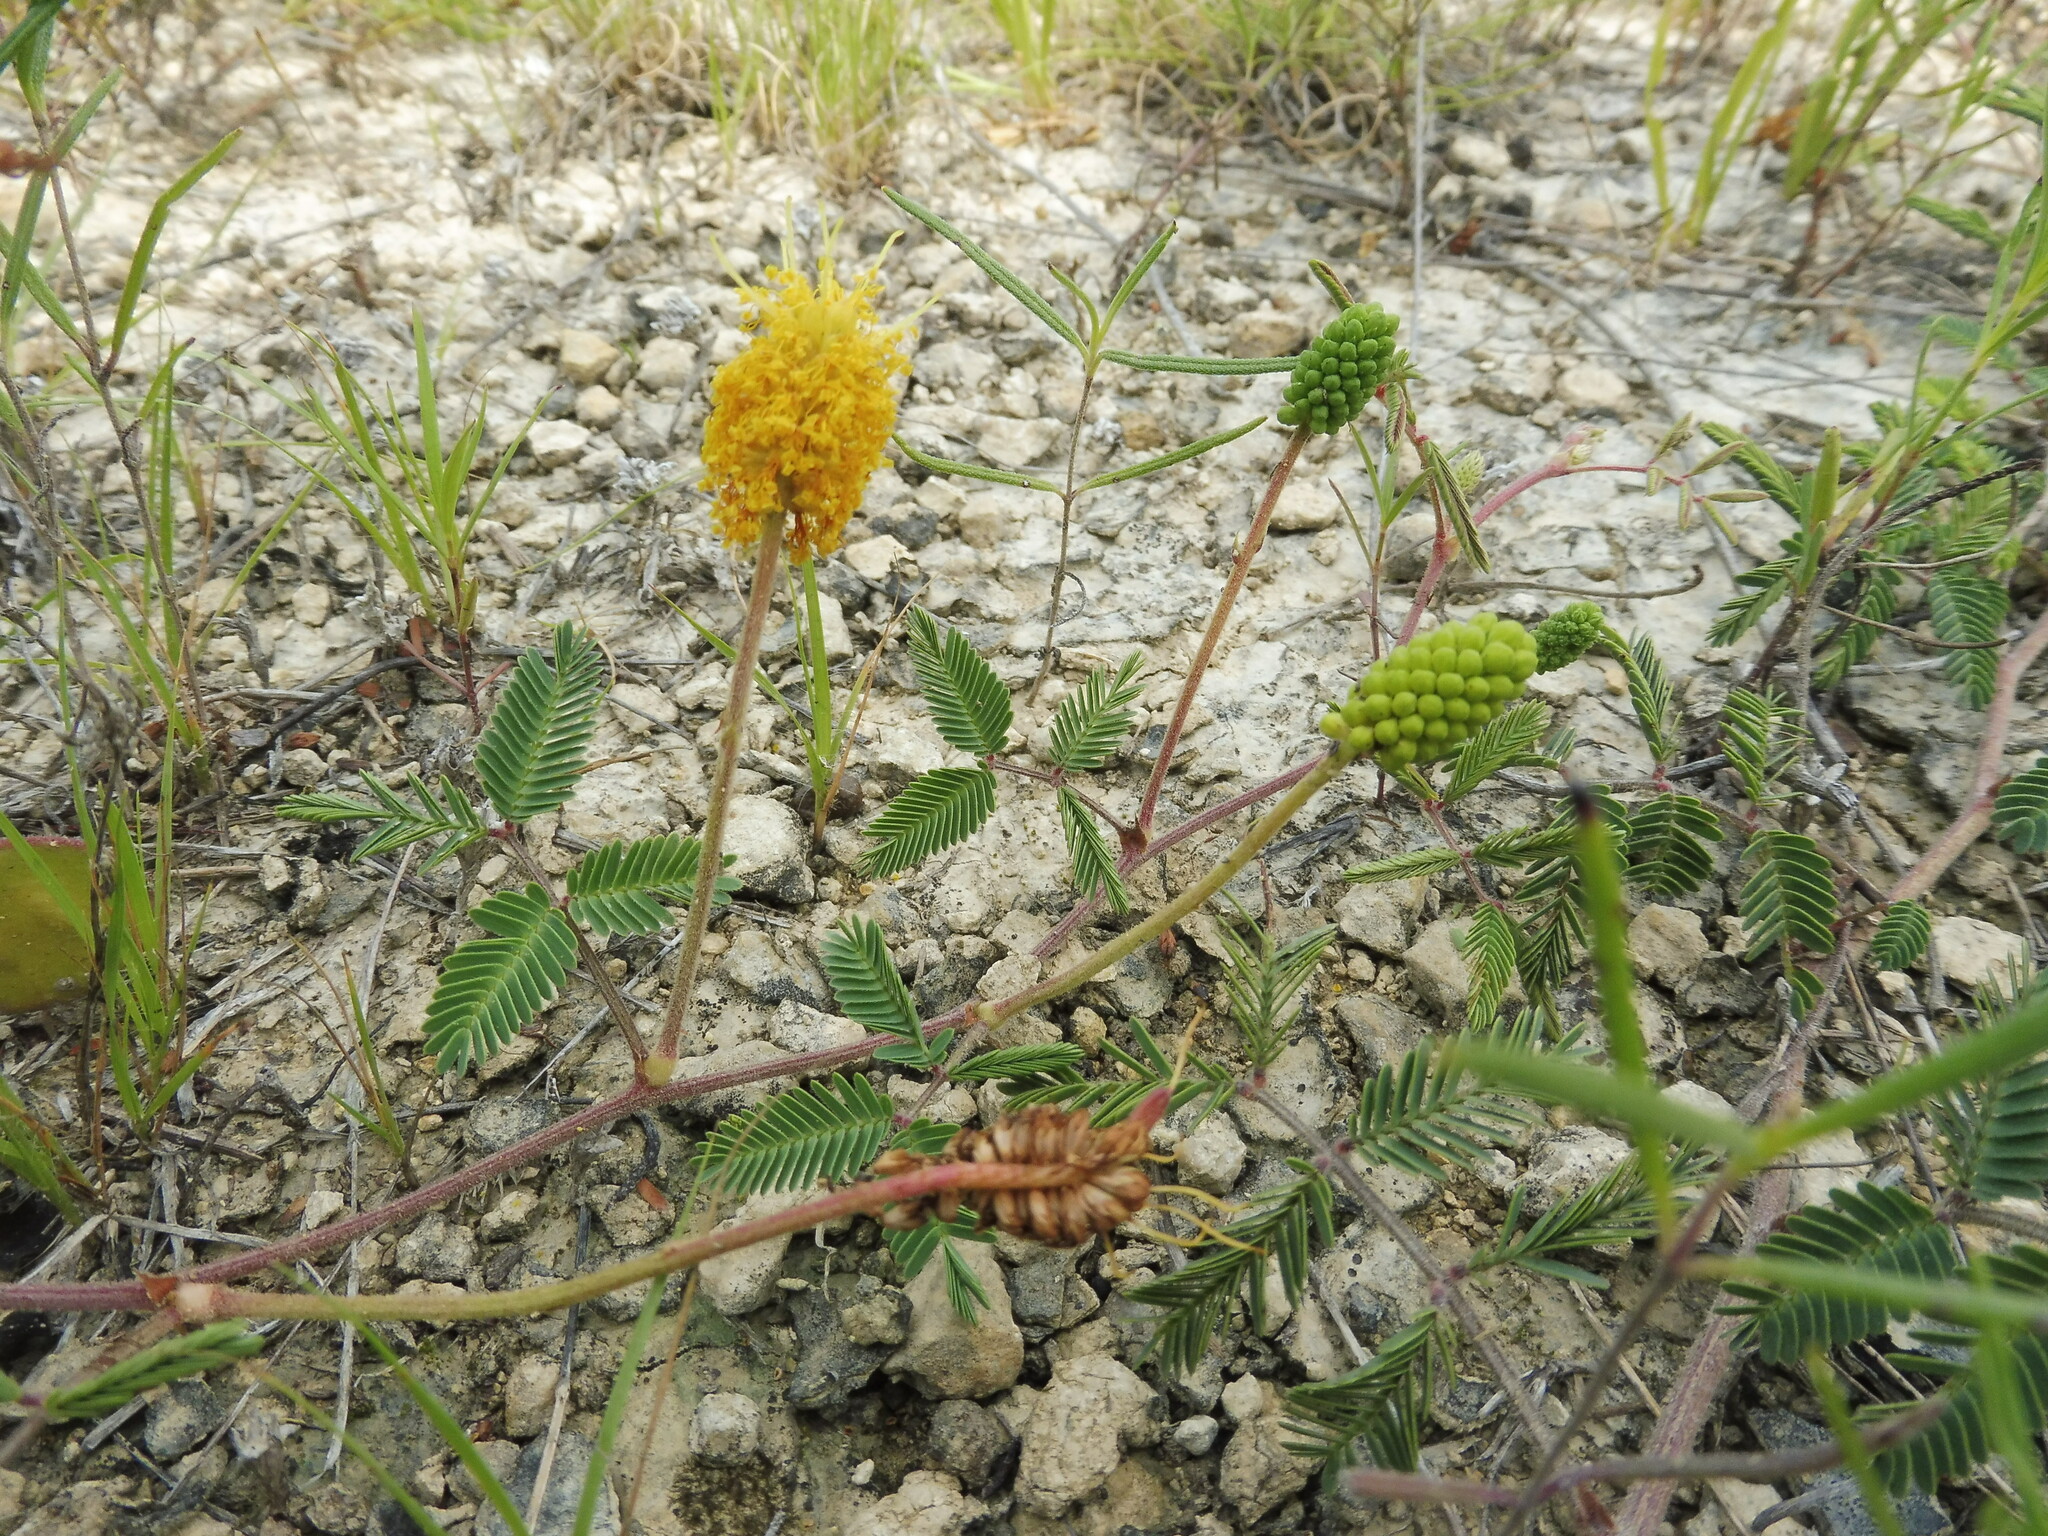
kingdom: Plantae
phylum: Tracheophyta
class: Magnoliopsida
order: Fabales
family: Fabaceae
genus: Neptunia
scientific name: Neptunia lutea
